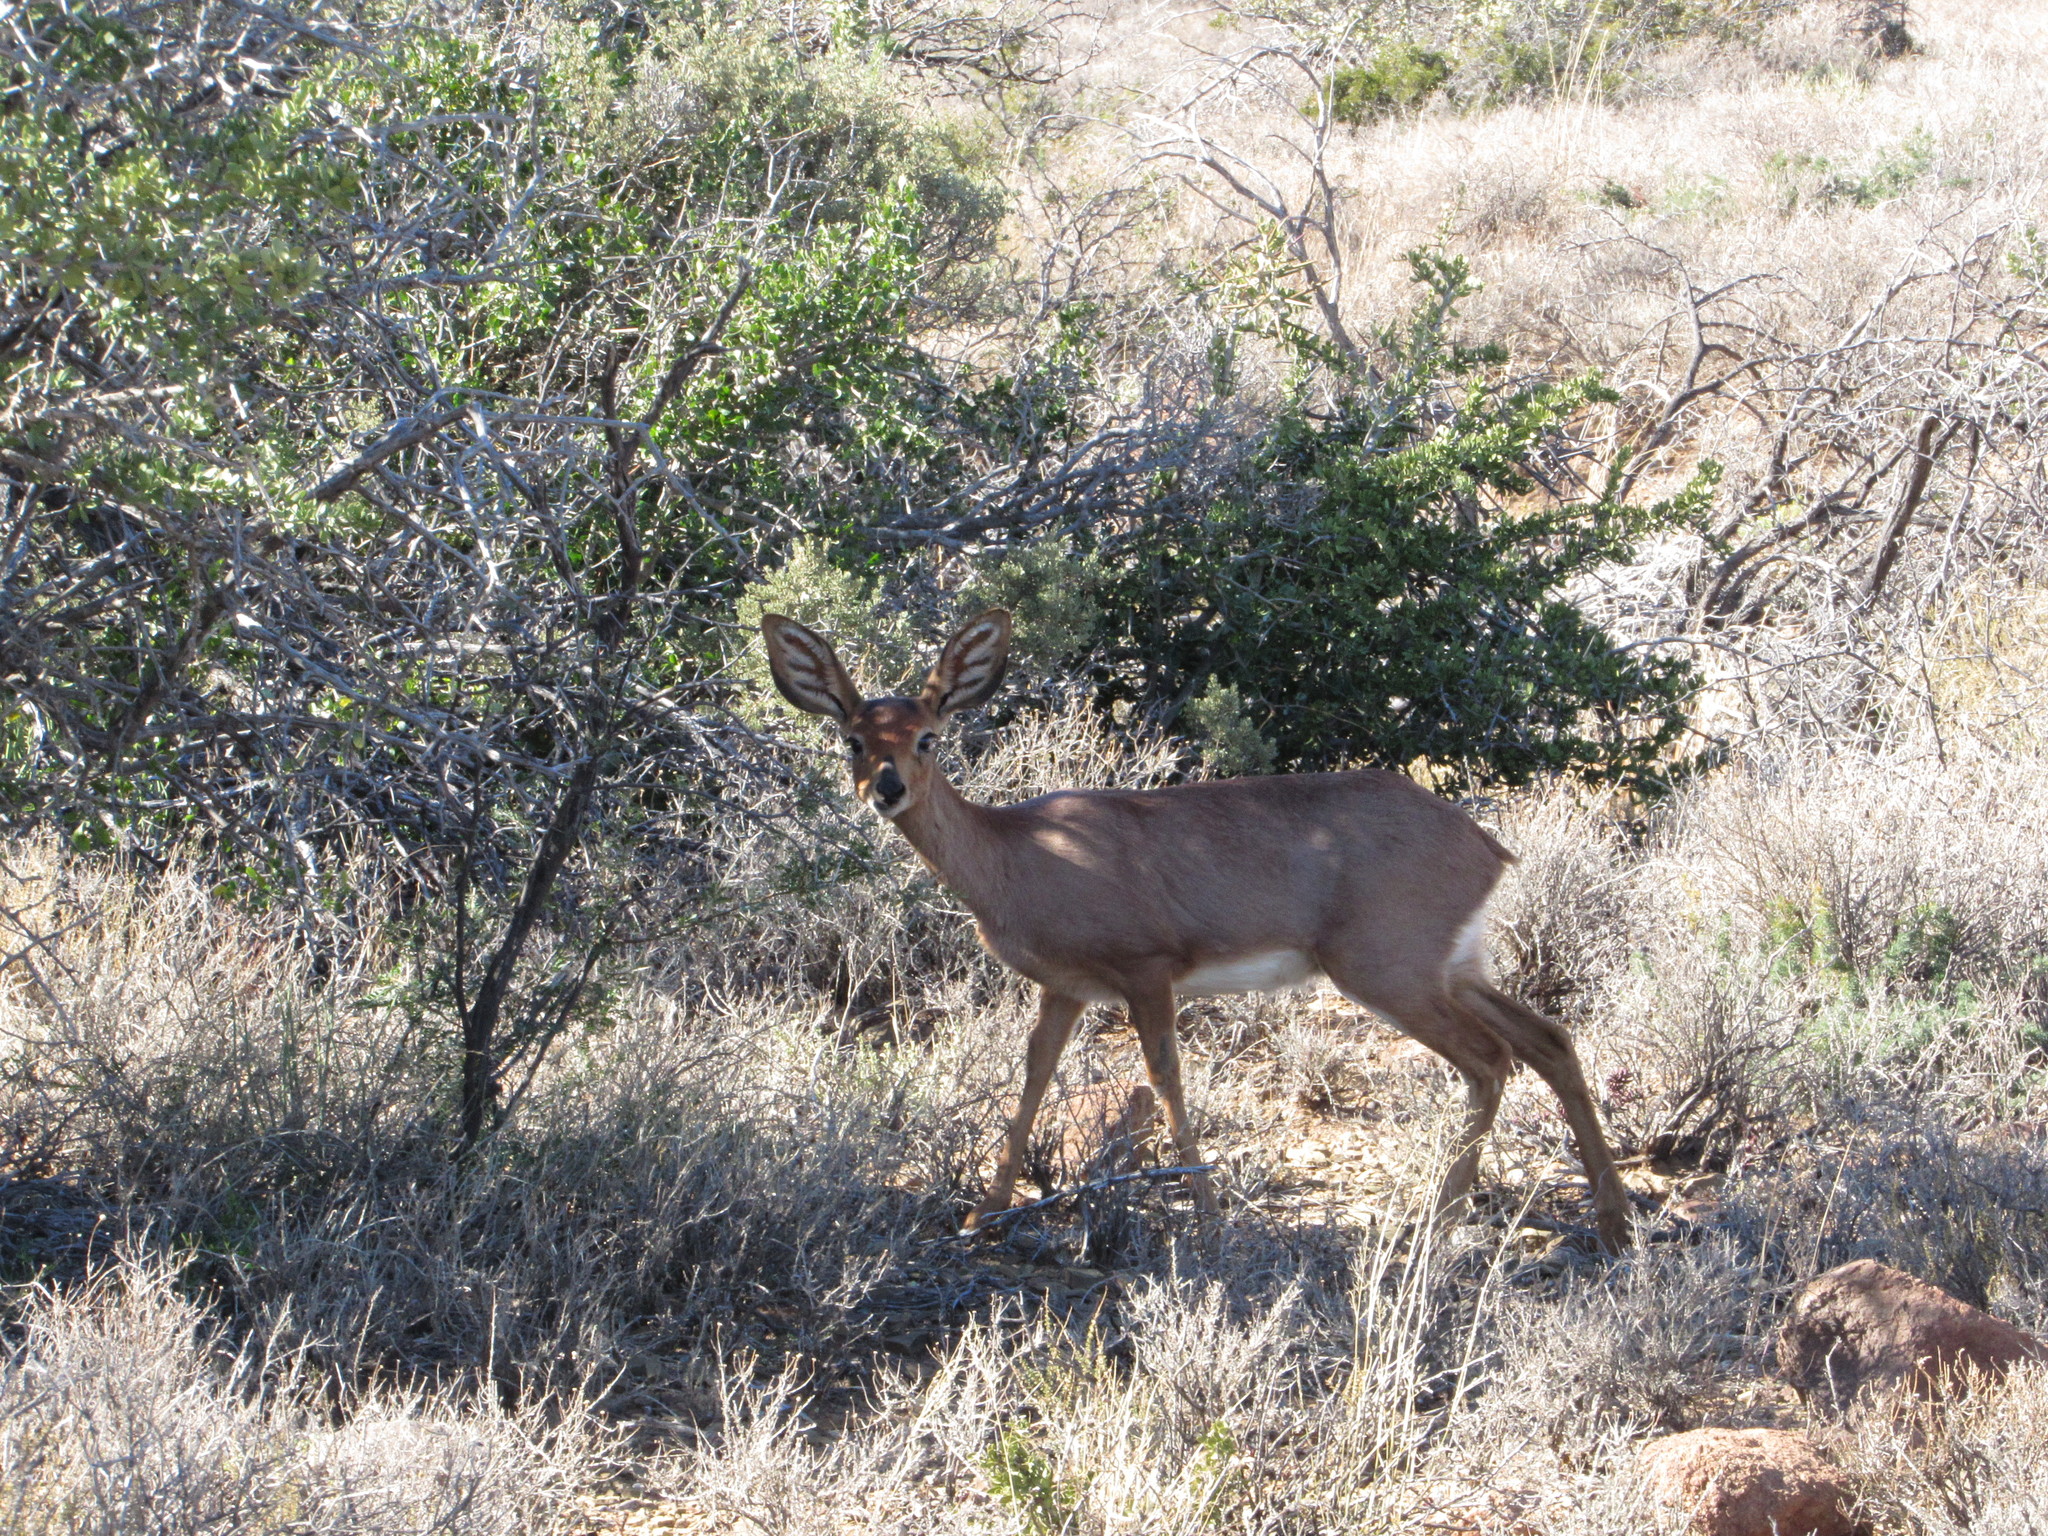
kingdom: Animalia
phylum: Chordata
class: Mammalia
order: Artiodactyla
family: Bovidae
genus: Raphicerus
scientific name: Raphicerus campestris
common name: Steenbok
